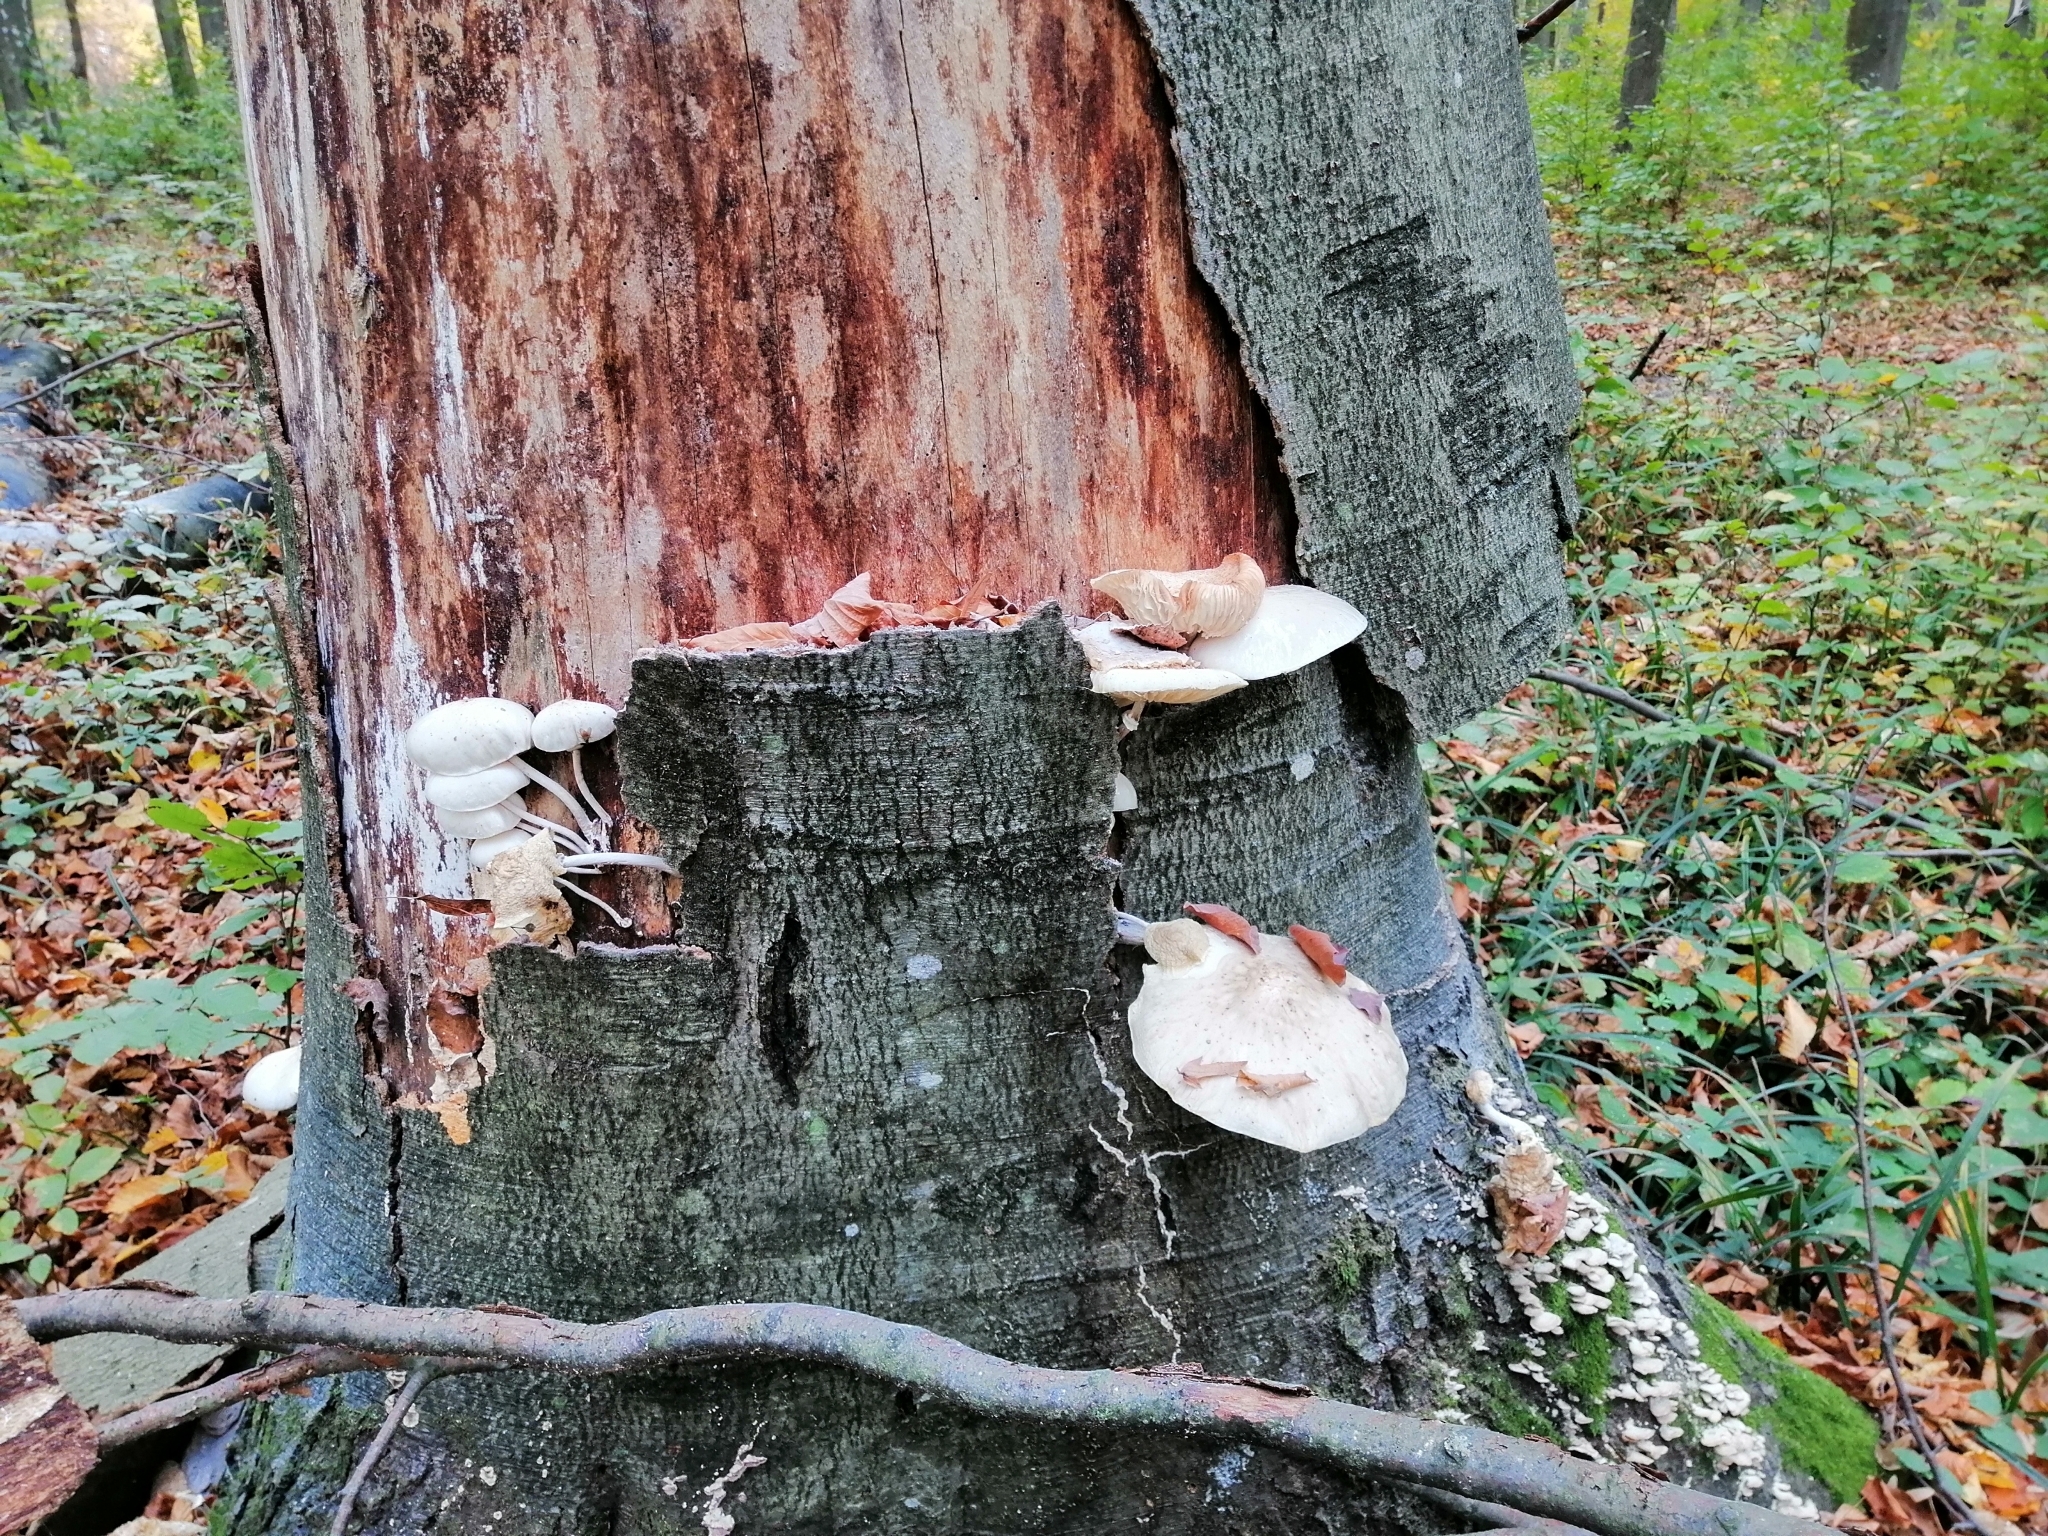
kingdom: Fungi
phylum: Basidiomycota
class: Agaricomycetes
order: Agaricales
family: Physalacriaceae
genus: Mucidula
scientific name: Mucidula mucida
